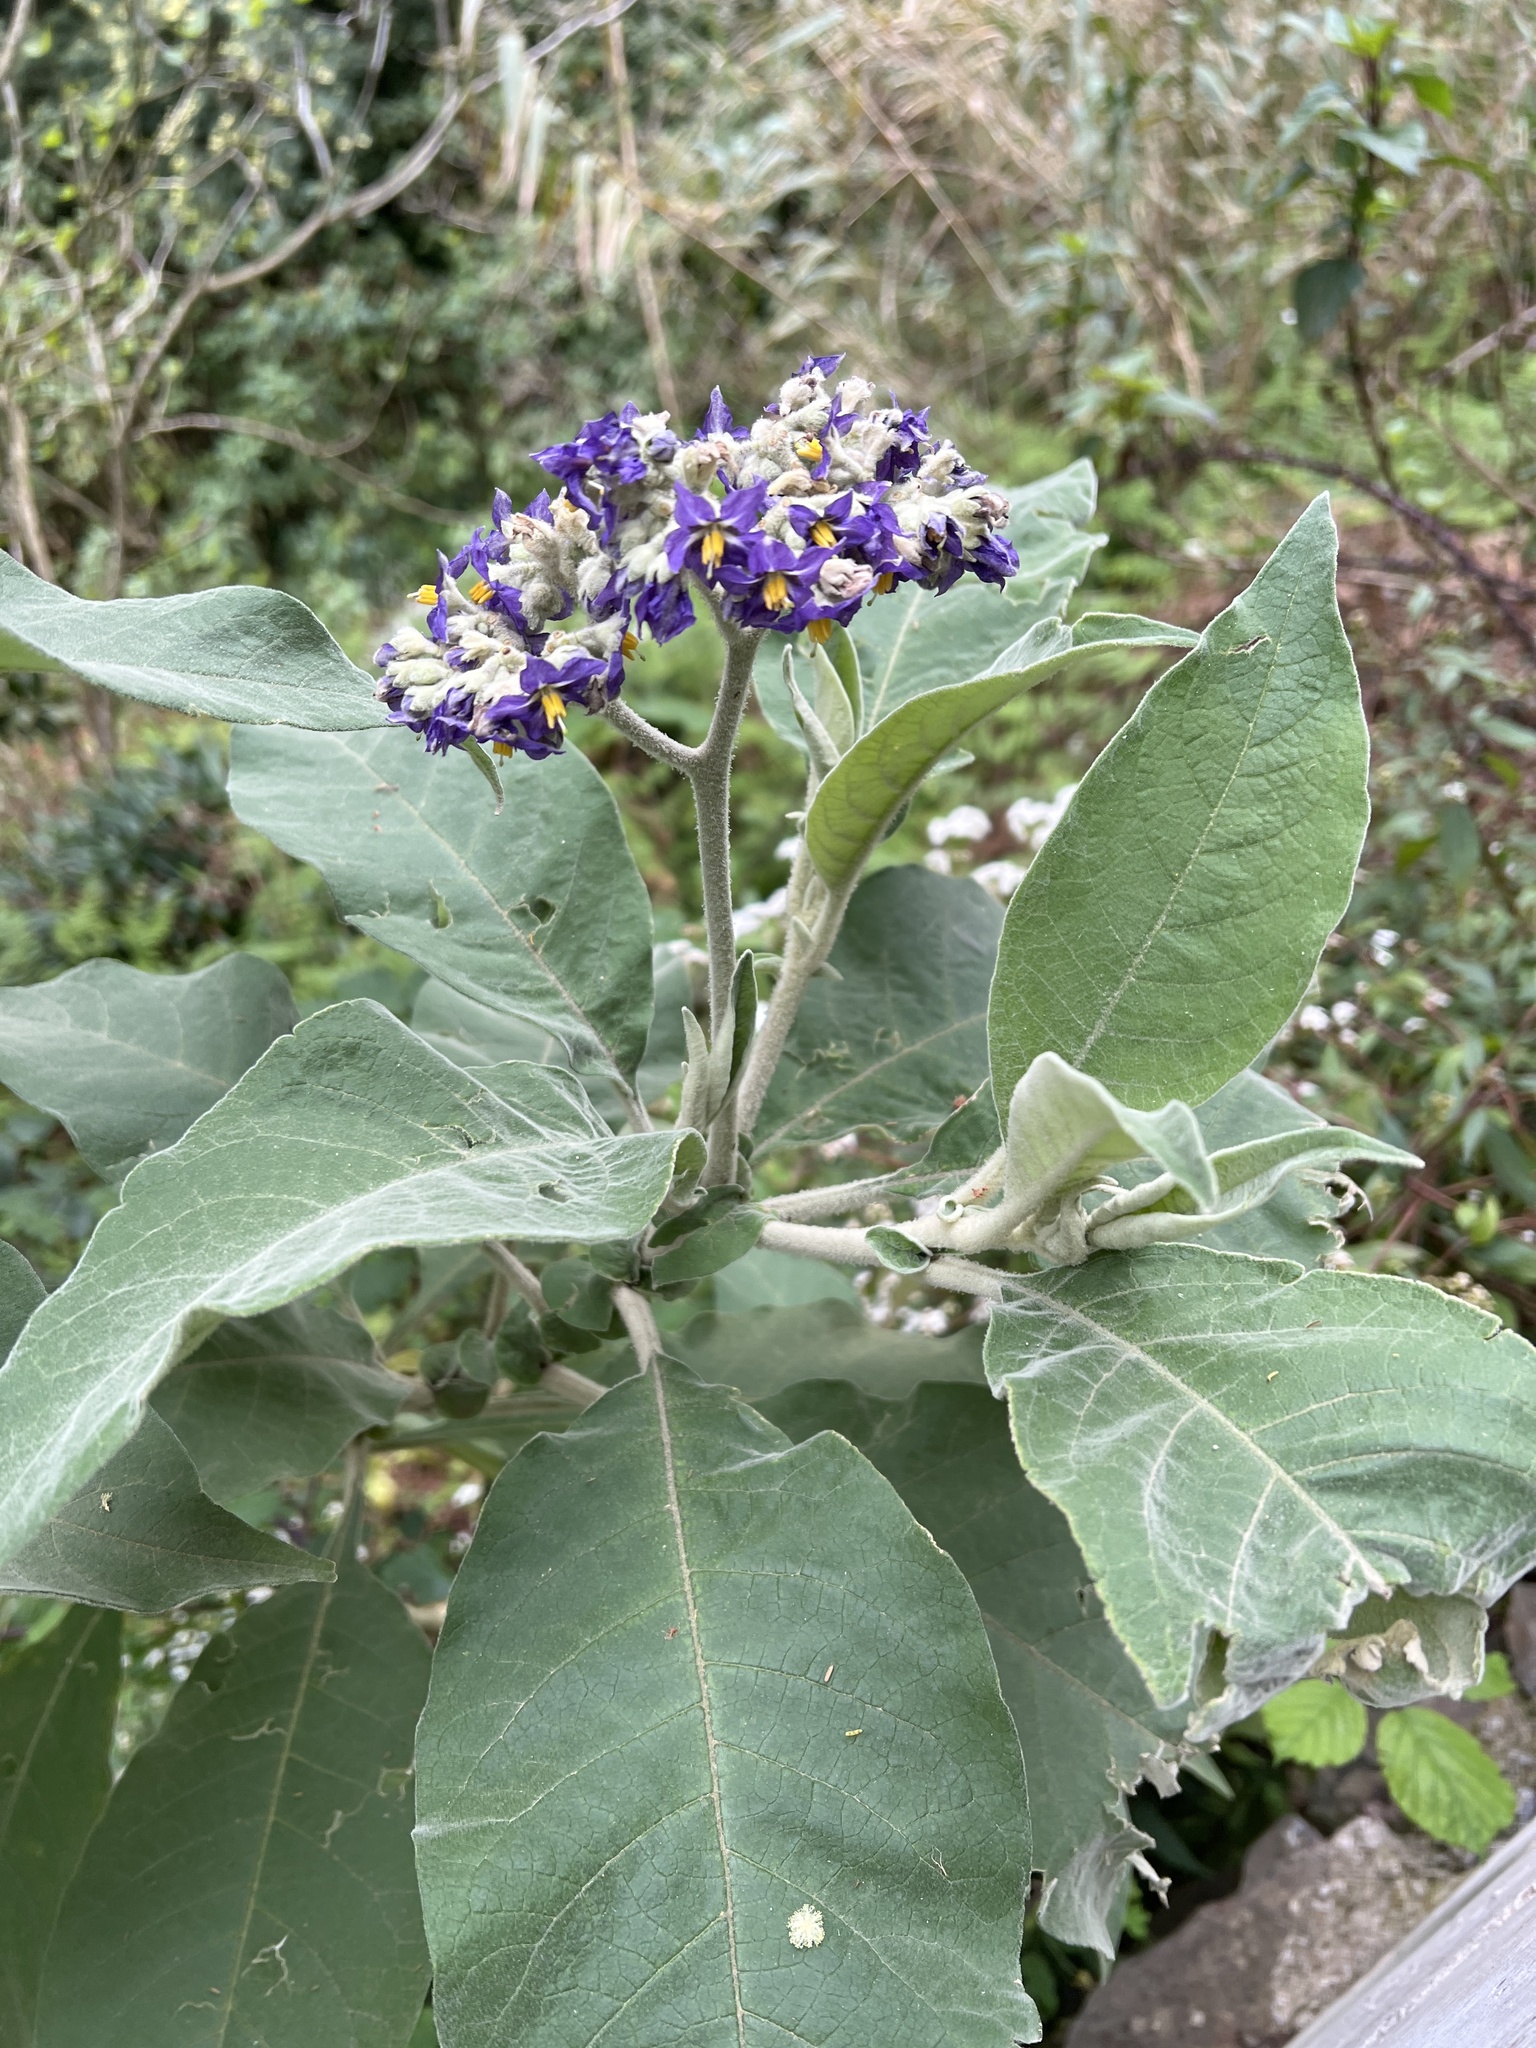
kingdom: Plantae
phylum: Tracheophyta
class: Magnoliopsida
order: Solanales
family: Solanaceae
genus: Solanum
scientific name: Solanum mauritianum
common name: Earleaf nightshade
